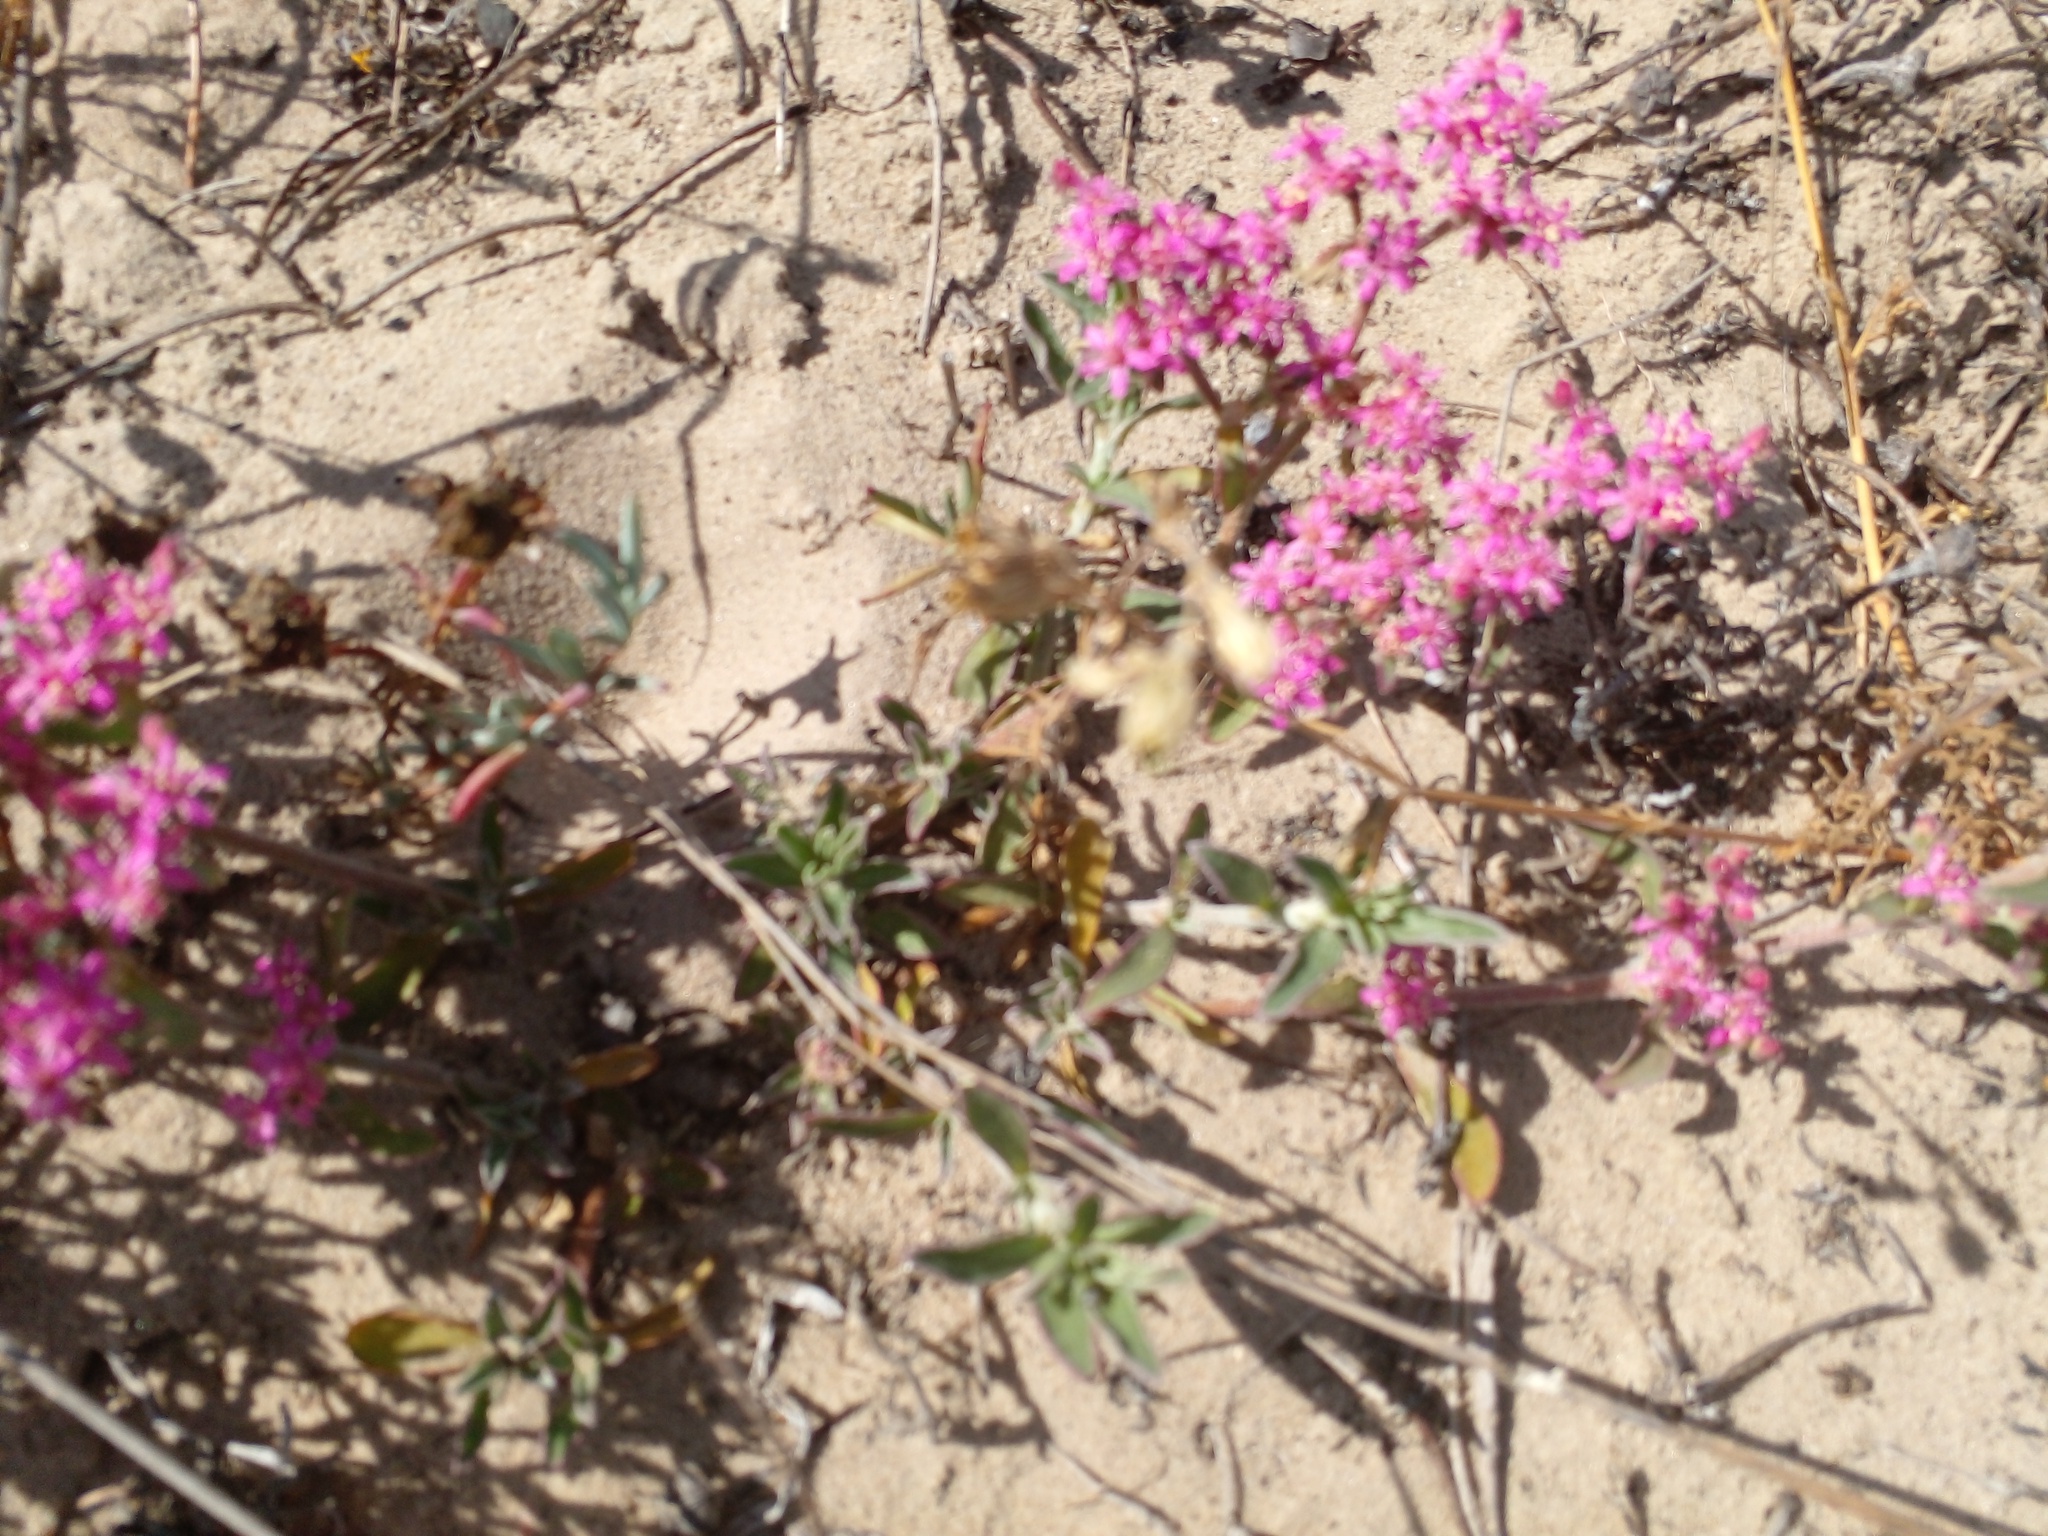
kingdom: Plantae
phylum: Tracheophyta
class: Magnoliopsida
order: Caryophyllales
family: Aizoaceae
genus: Aizoon
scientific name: Aizoon paniculatum
